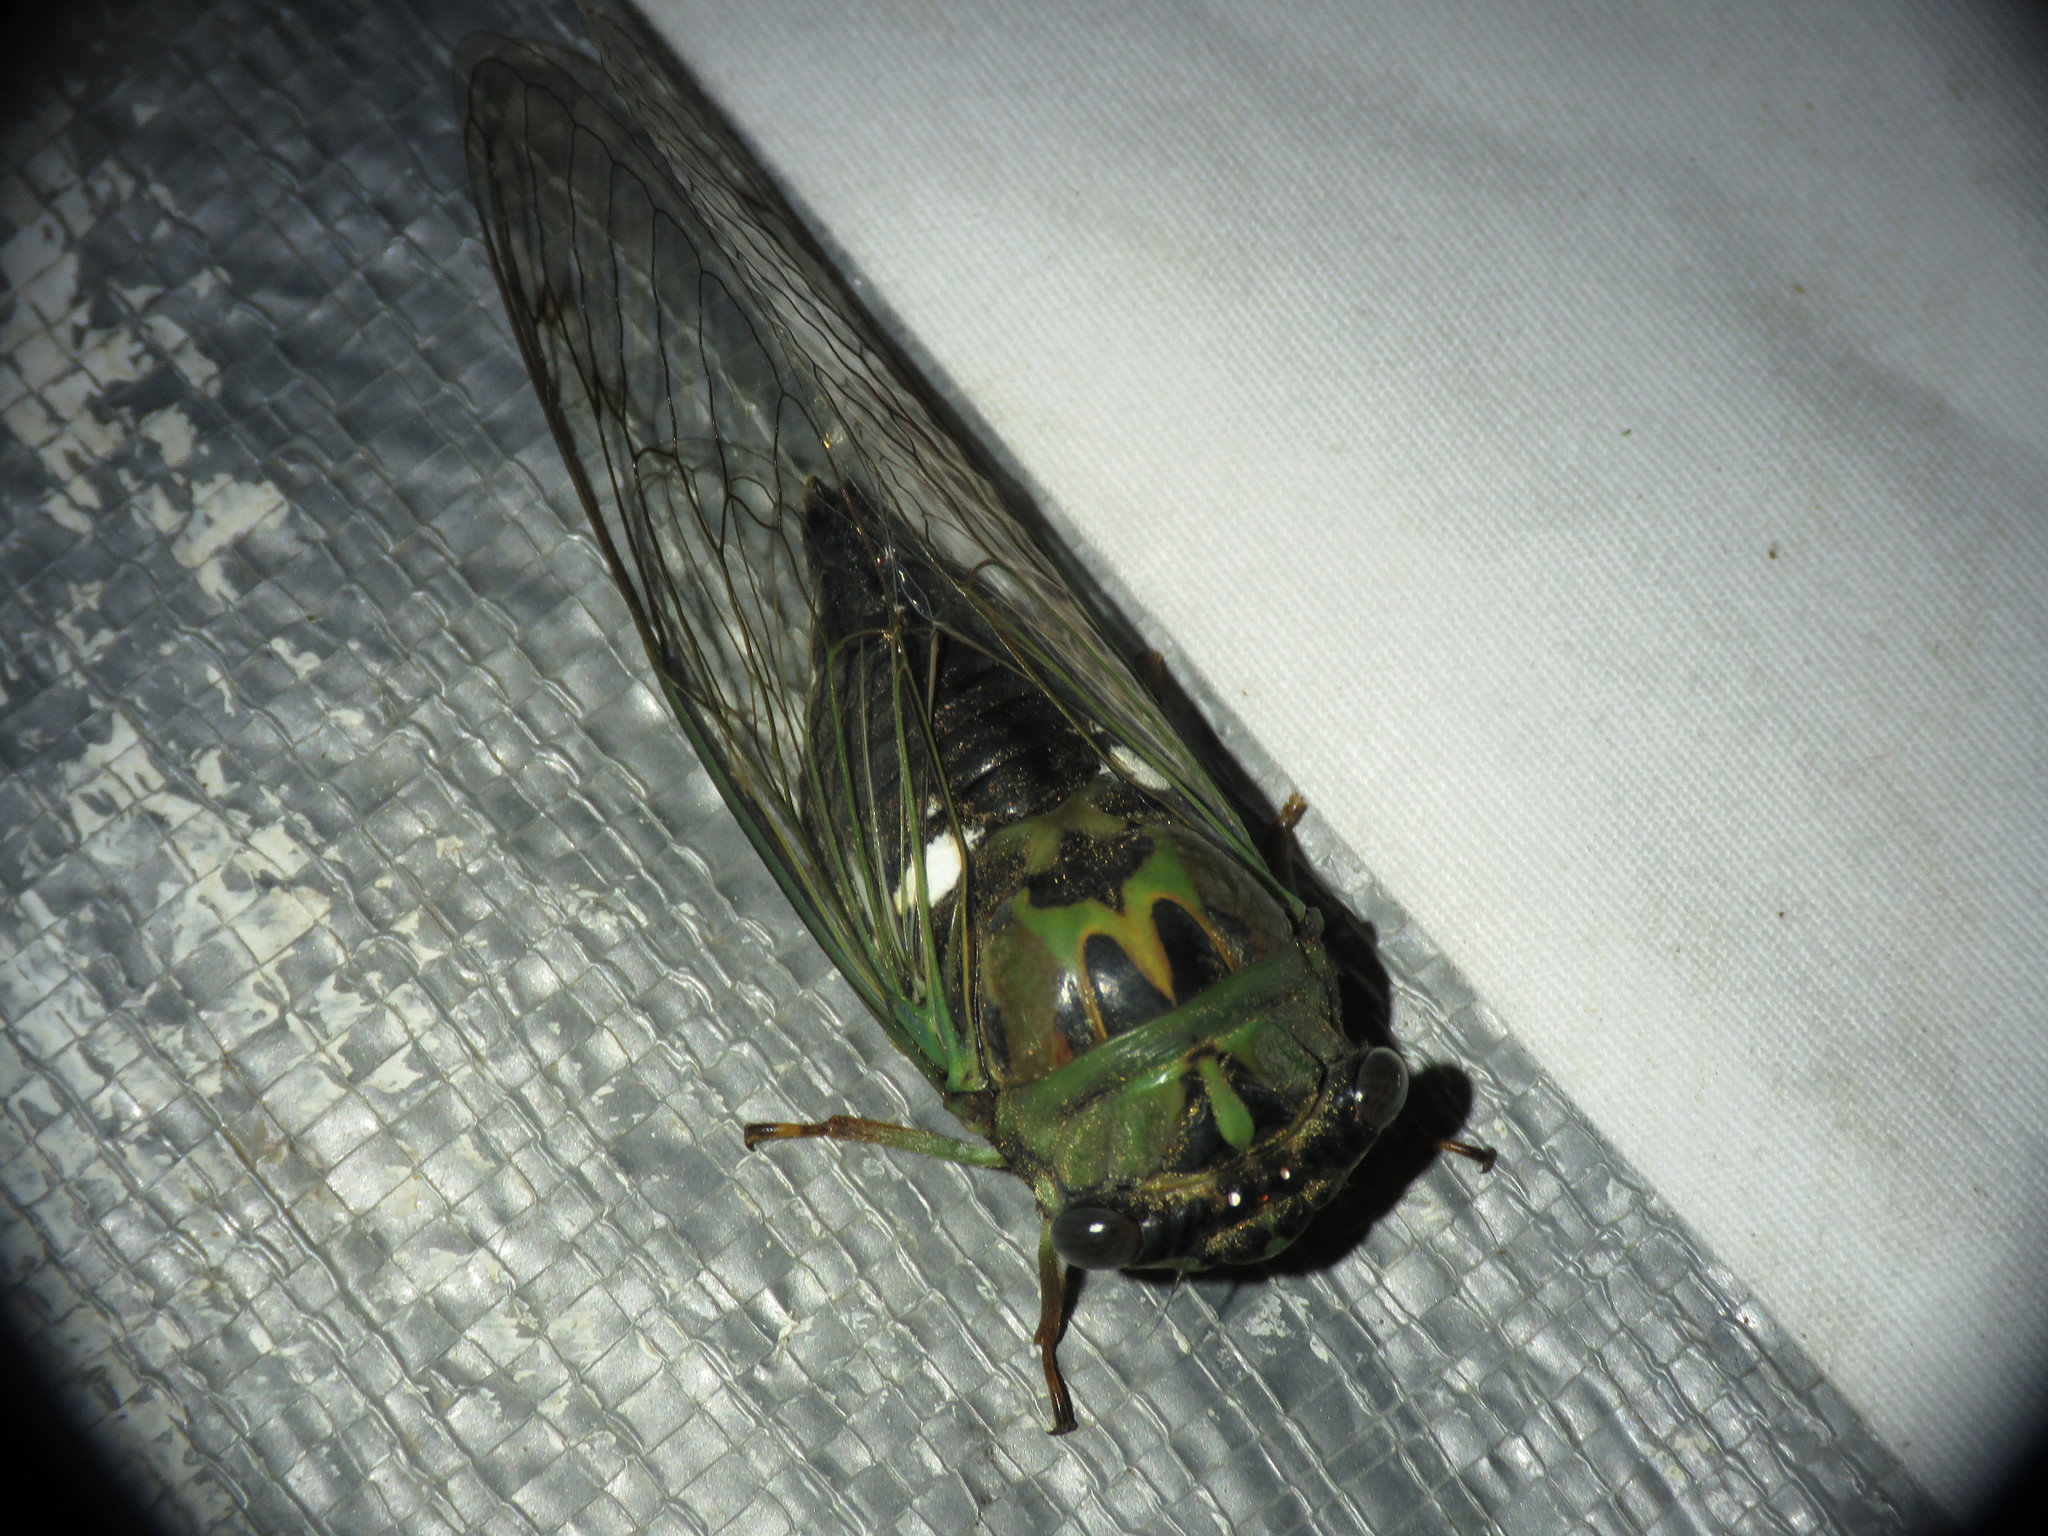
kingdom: Animalia
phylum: Arthropoda
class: Insecta
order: Hemiptera
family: Cicadidae
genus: Neotibicen
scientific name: Neotibicen pruinosus
